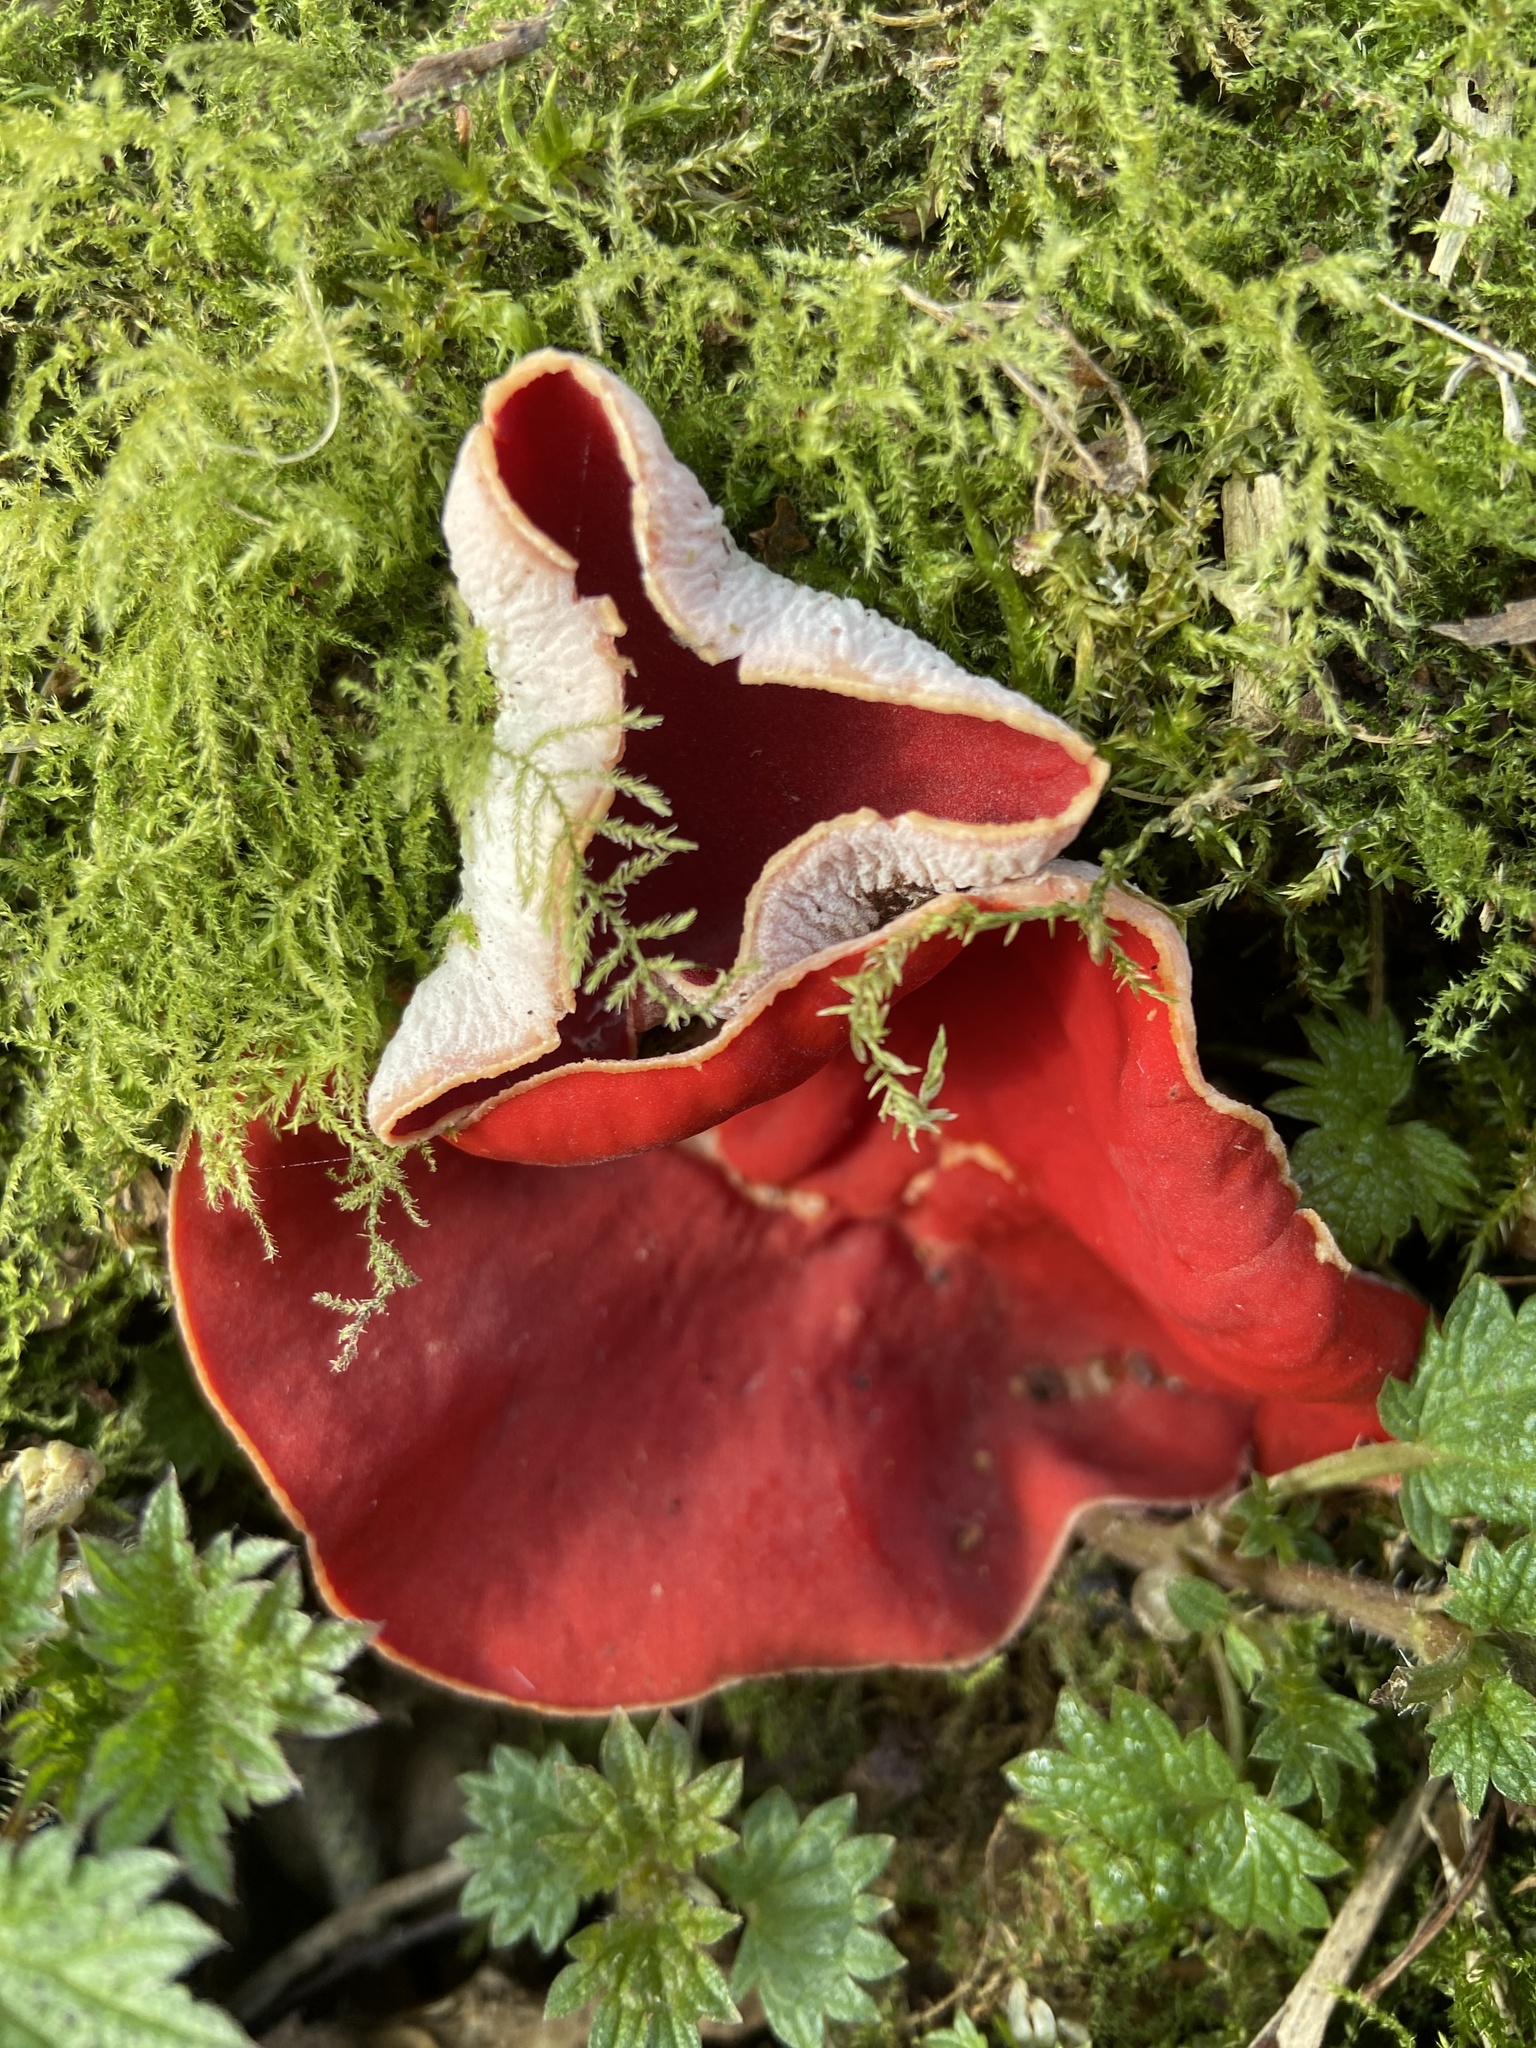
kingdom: Fungi
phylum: Ascomycota
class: Pezizomycetes
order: Pezizales
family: Sarcoscyphaceae
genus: Sarcoscypha
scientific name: Sarcoscypha
